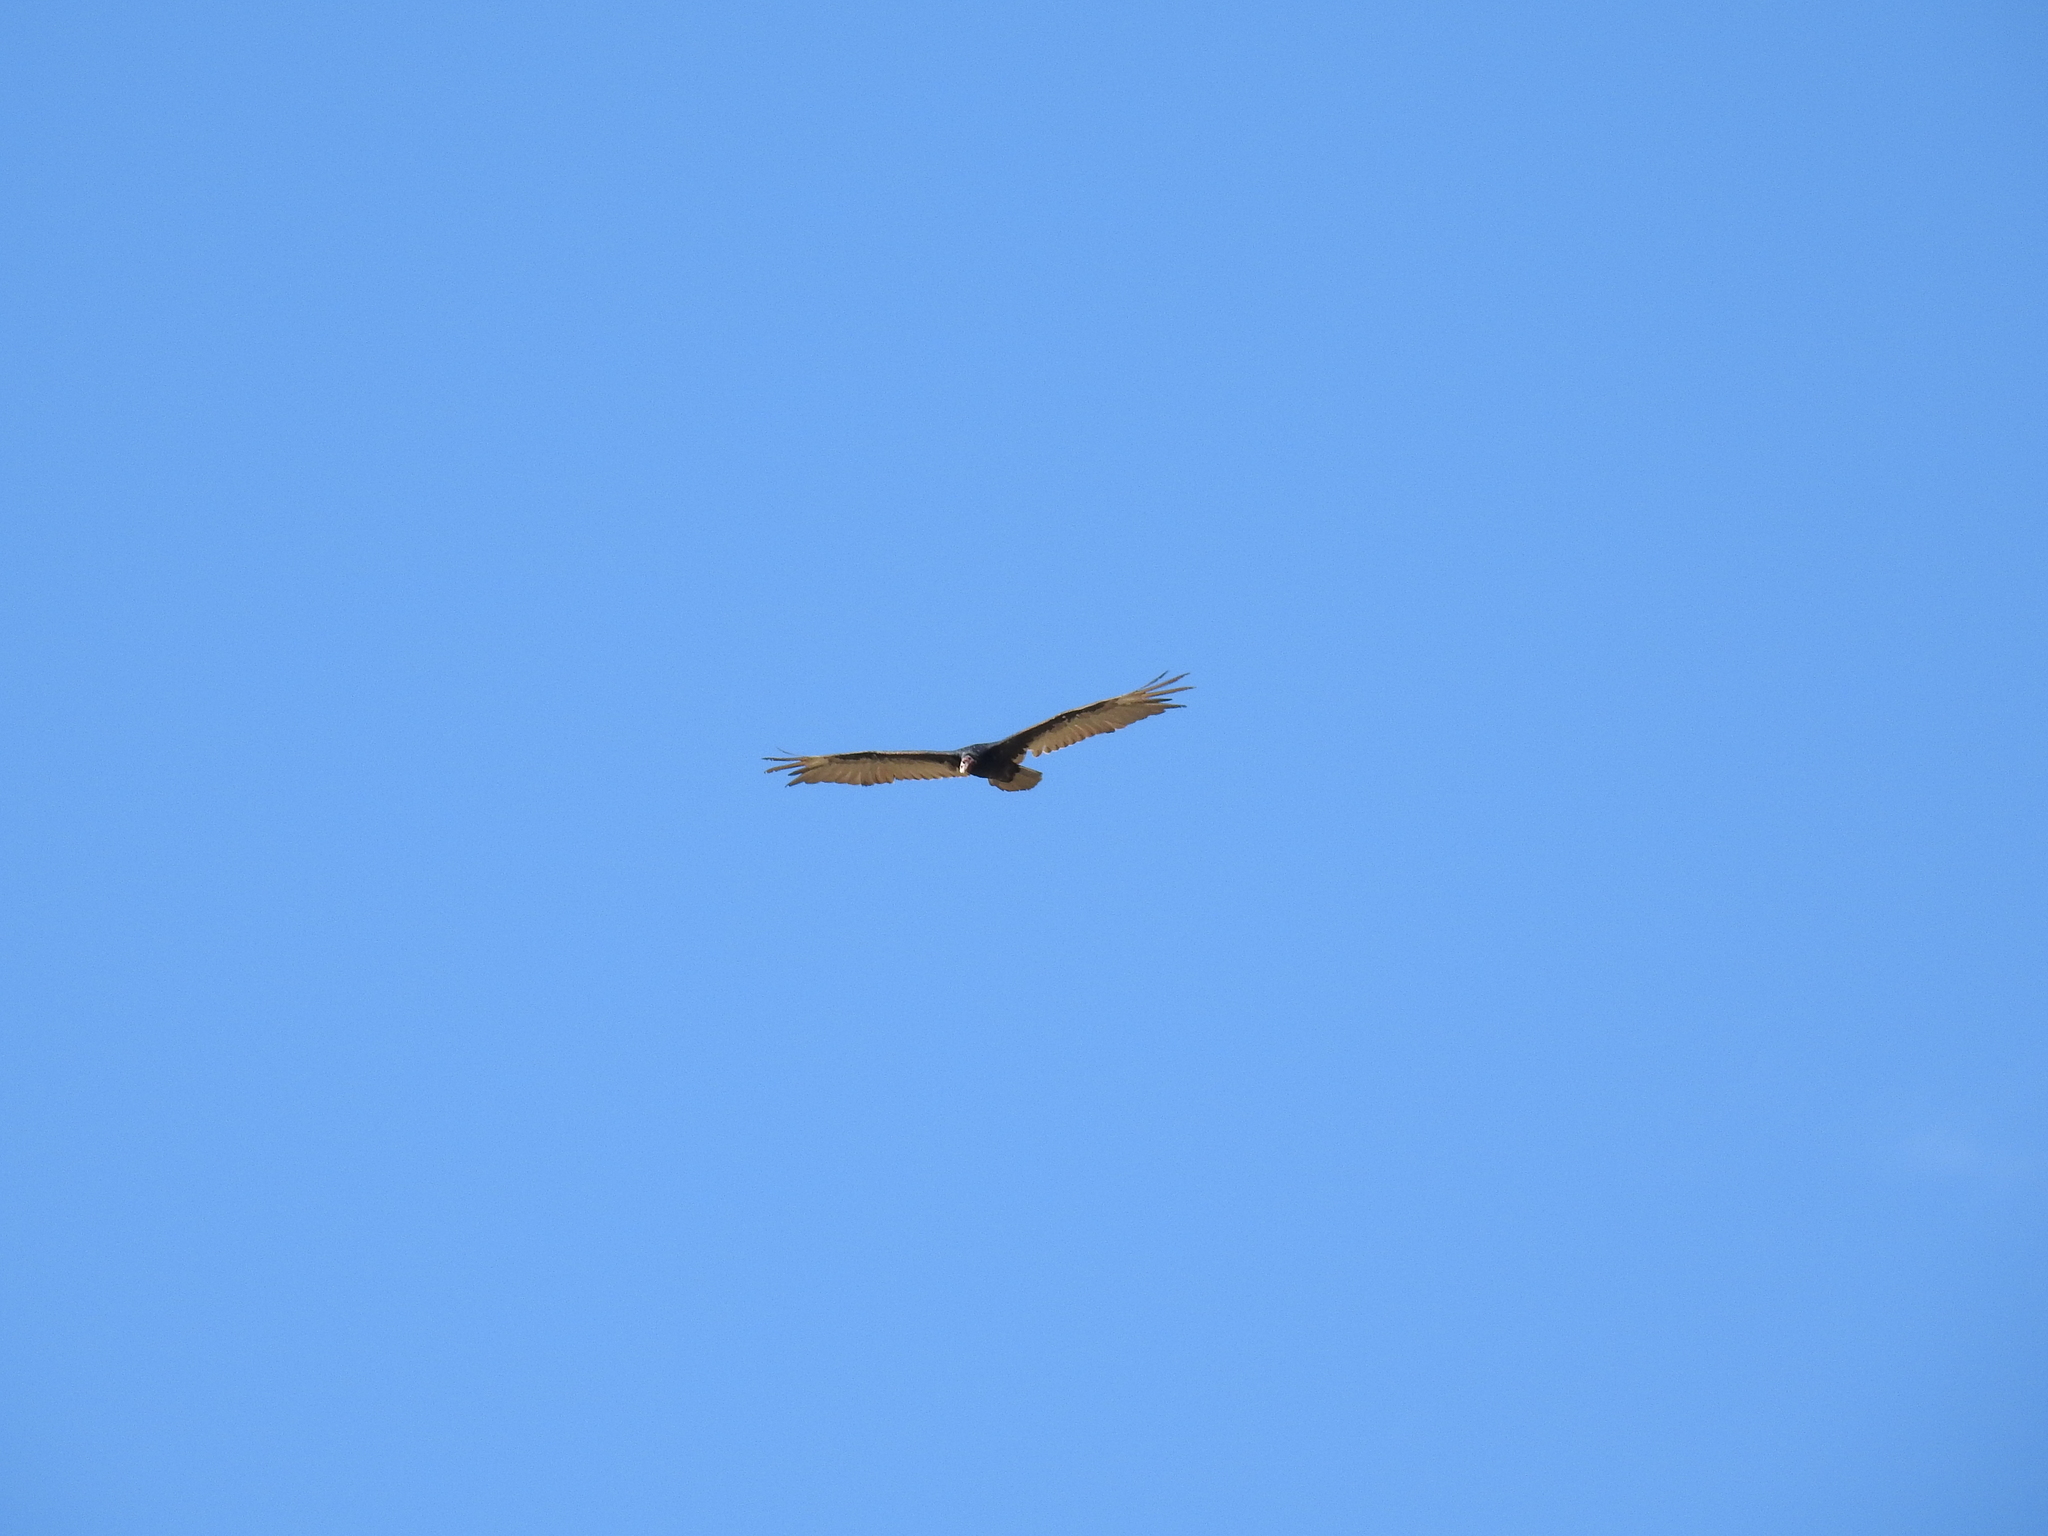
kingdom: Animalia
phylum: Chordata
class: Aves
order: Accipitriformes
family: Cathartidae
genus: Cathartes
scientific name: Cathartes aura
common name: Turkey vulture
